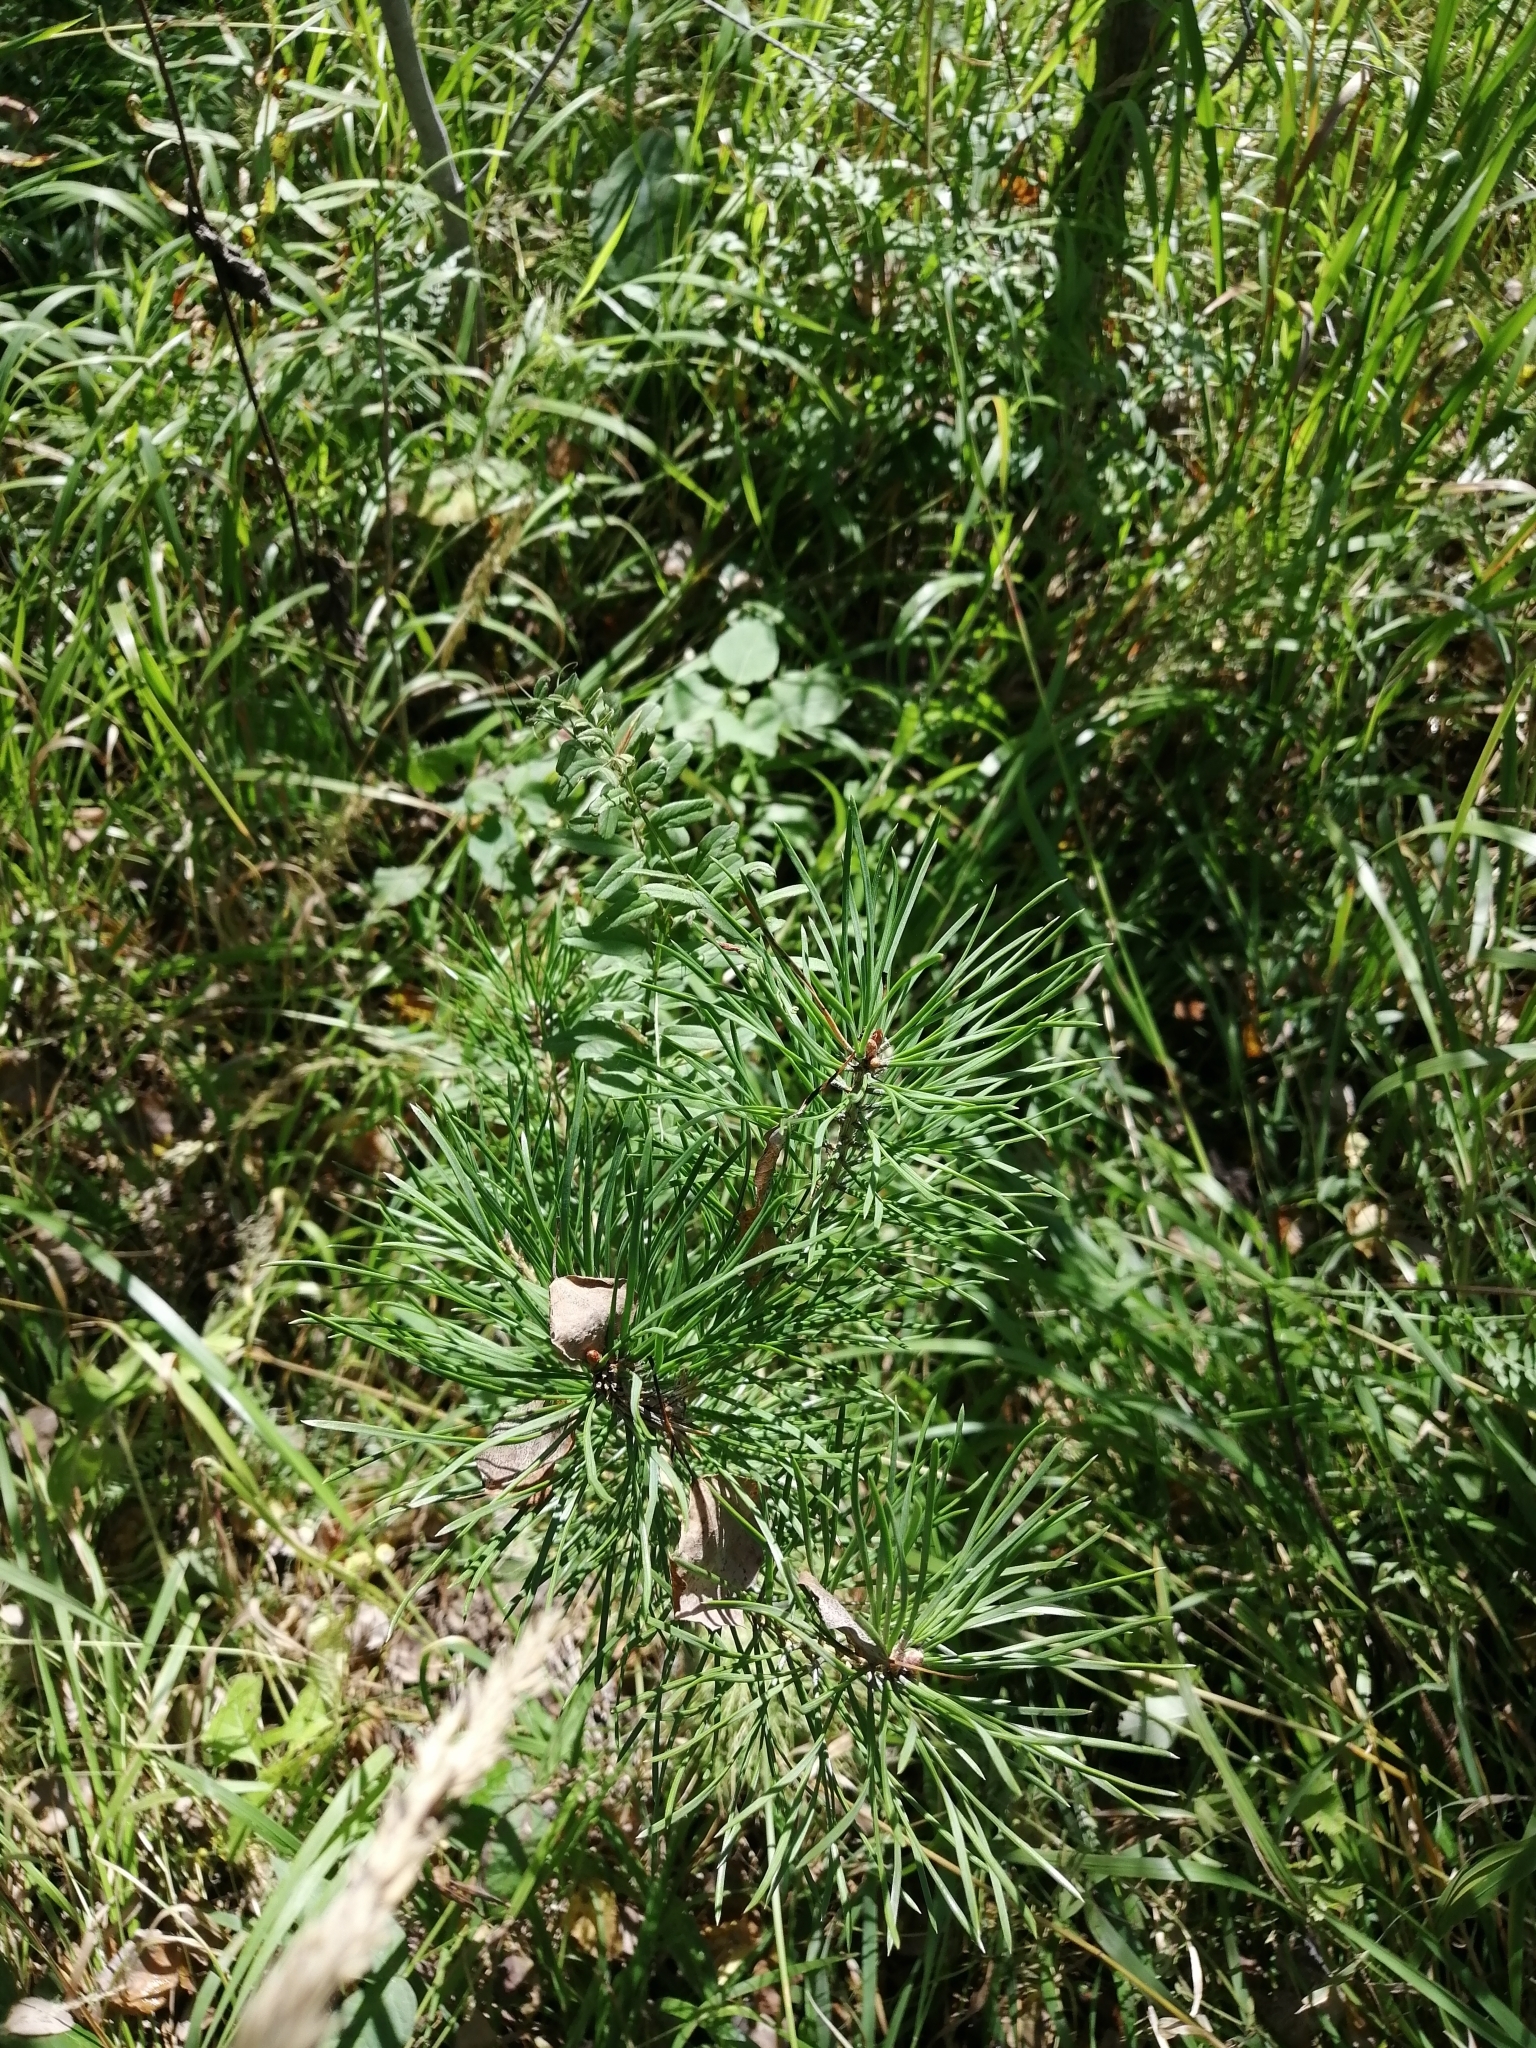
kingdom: Plantae
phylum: Tracheophyta
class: Pinopsida
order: Pinales
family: Pinaceae
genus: Pinus
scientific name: Pinus sylvestris
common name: Scots pine
